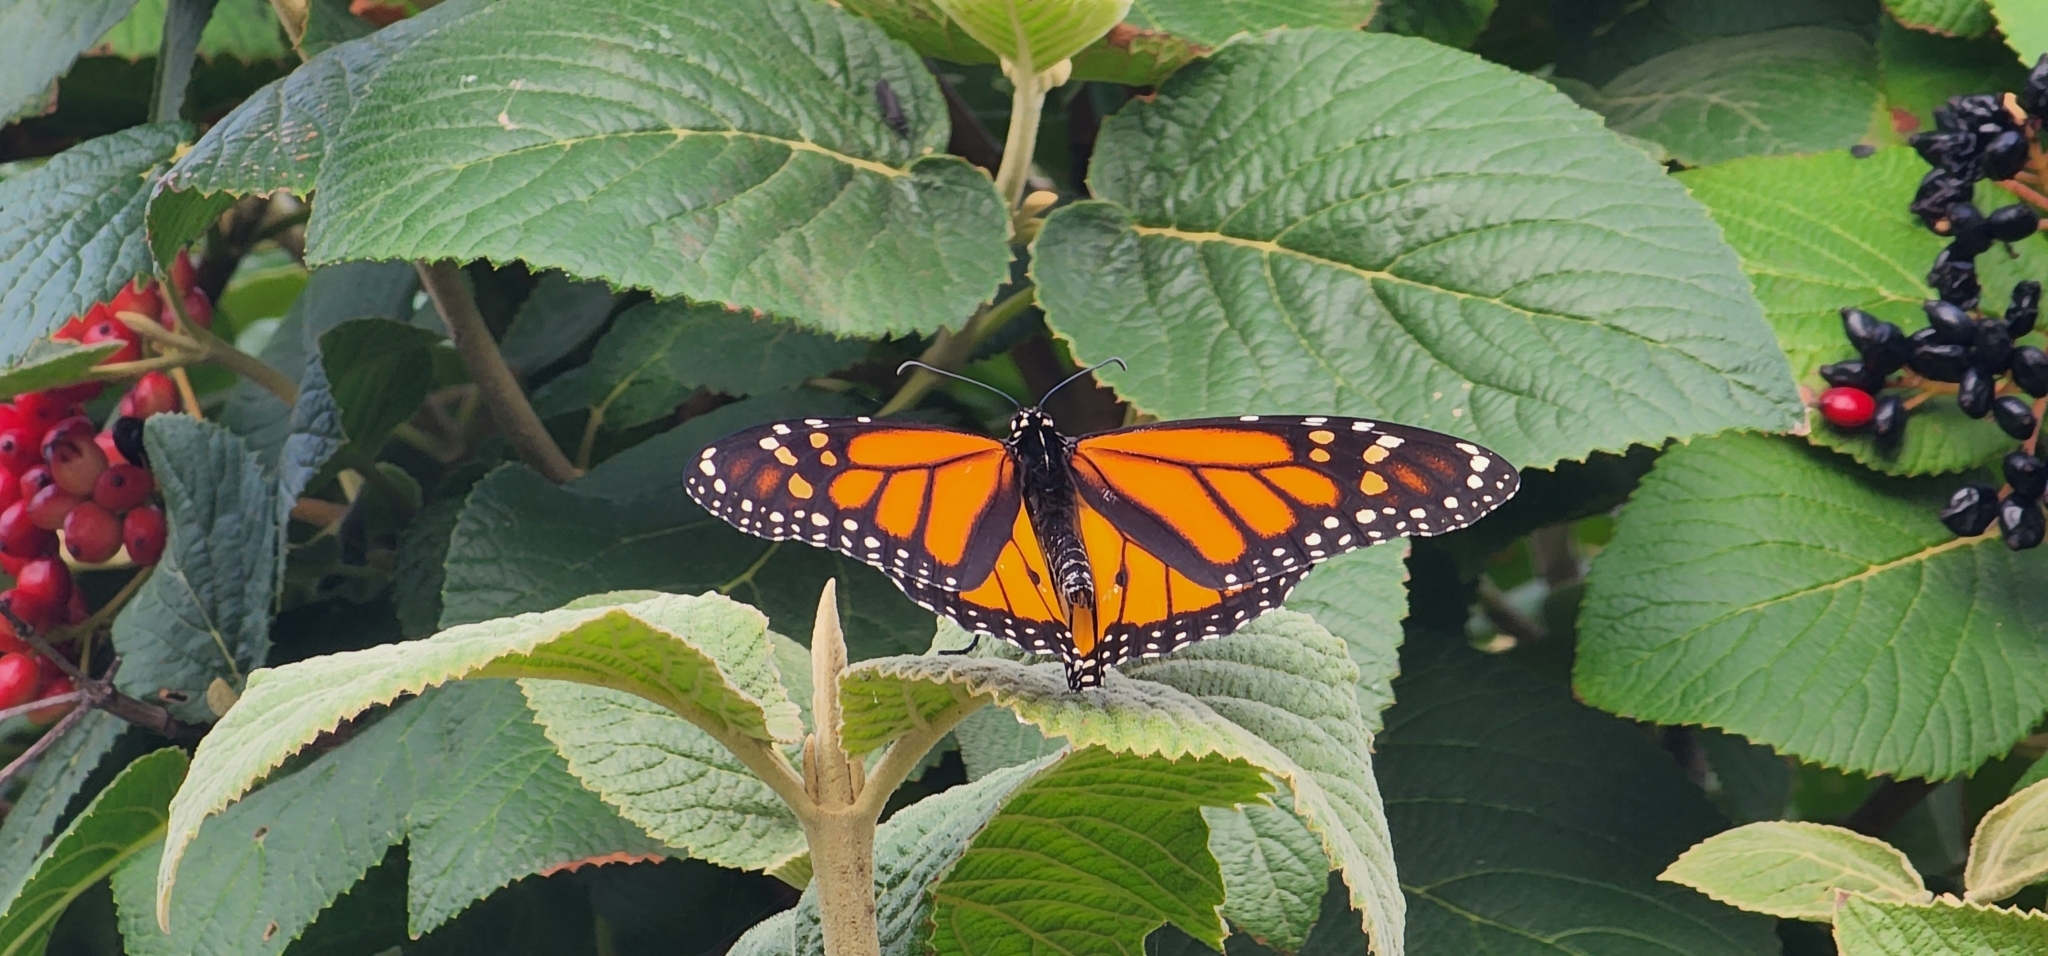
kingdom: Animalia
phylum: Arthropoda
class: Insecta
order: Lepidoptera
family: Nymphalidae
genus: Danaus
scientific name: Danaus plexippus
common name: Monarch
